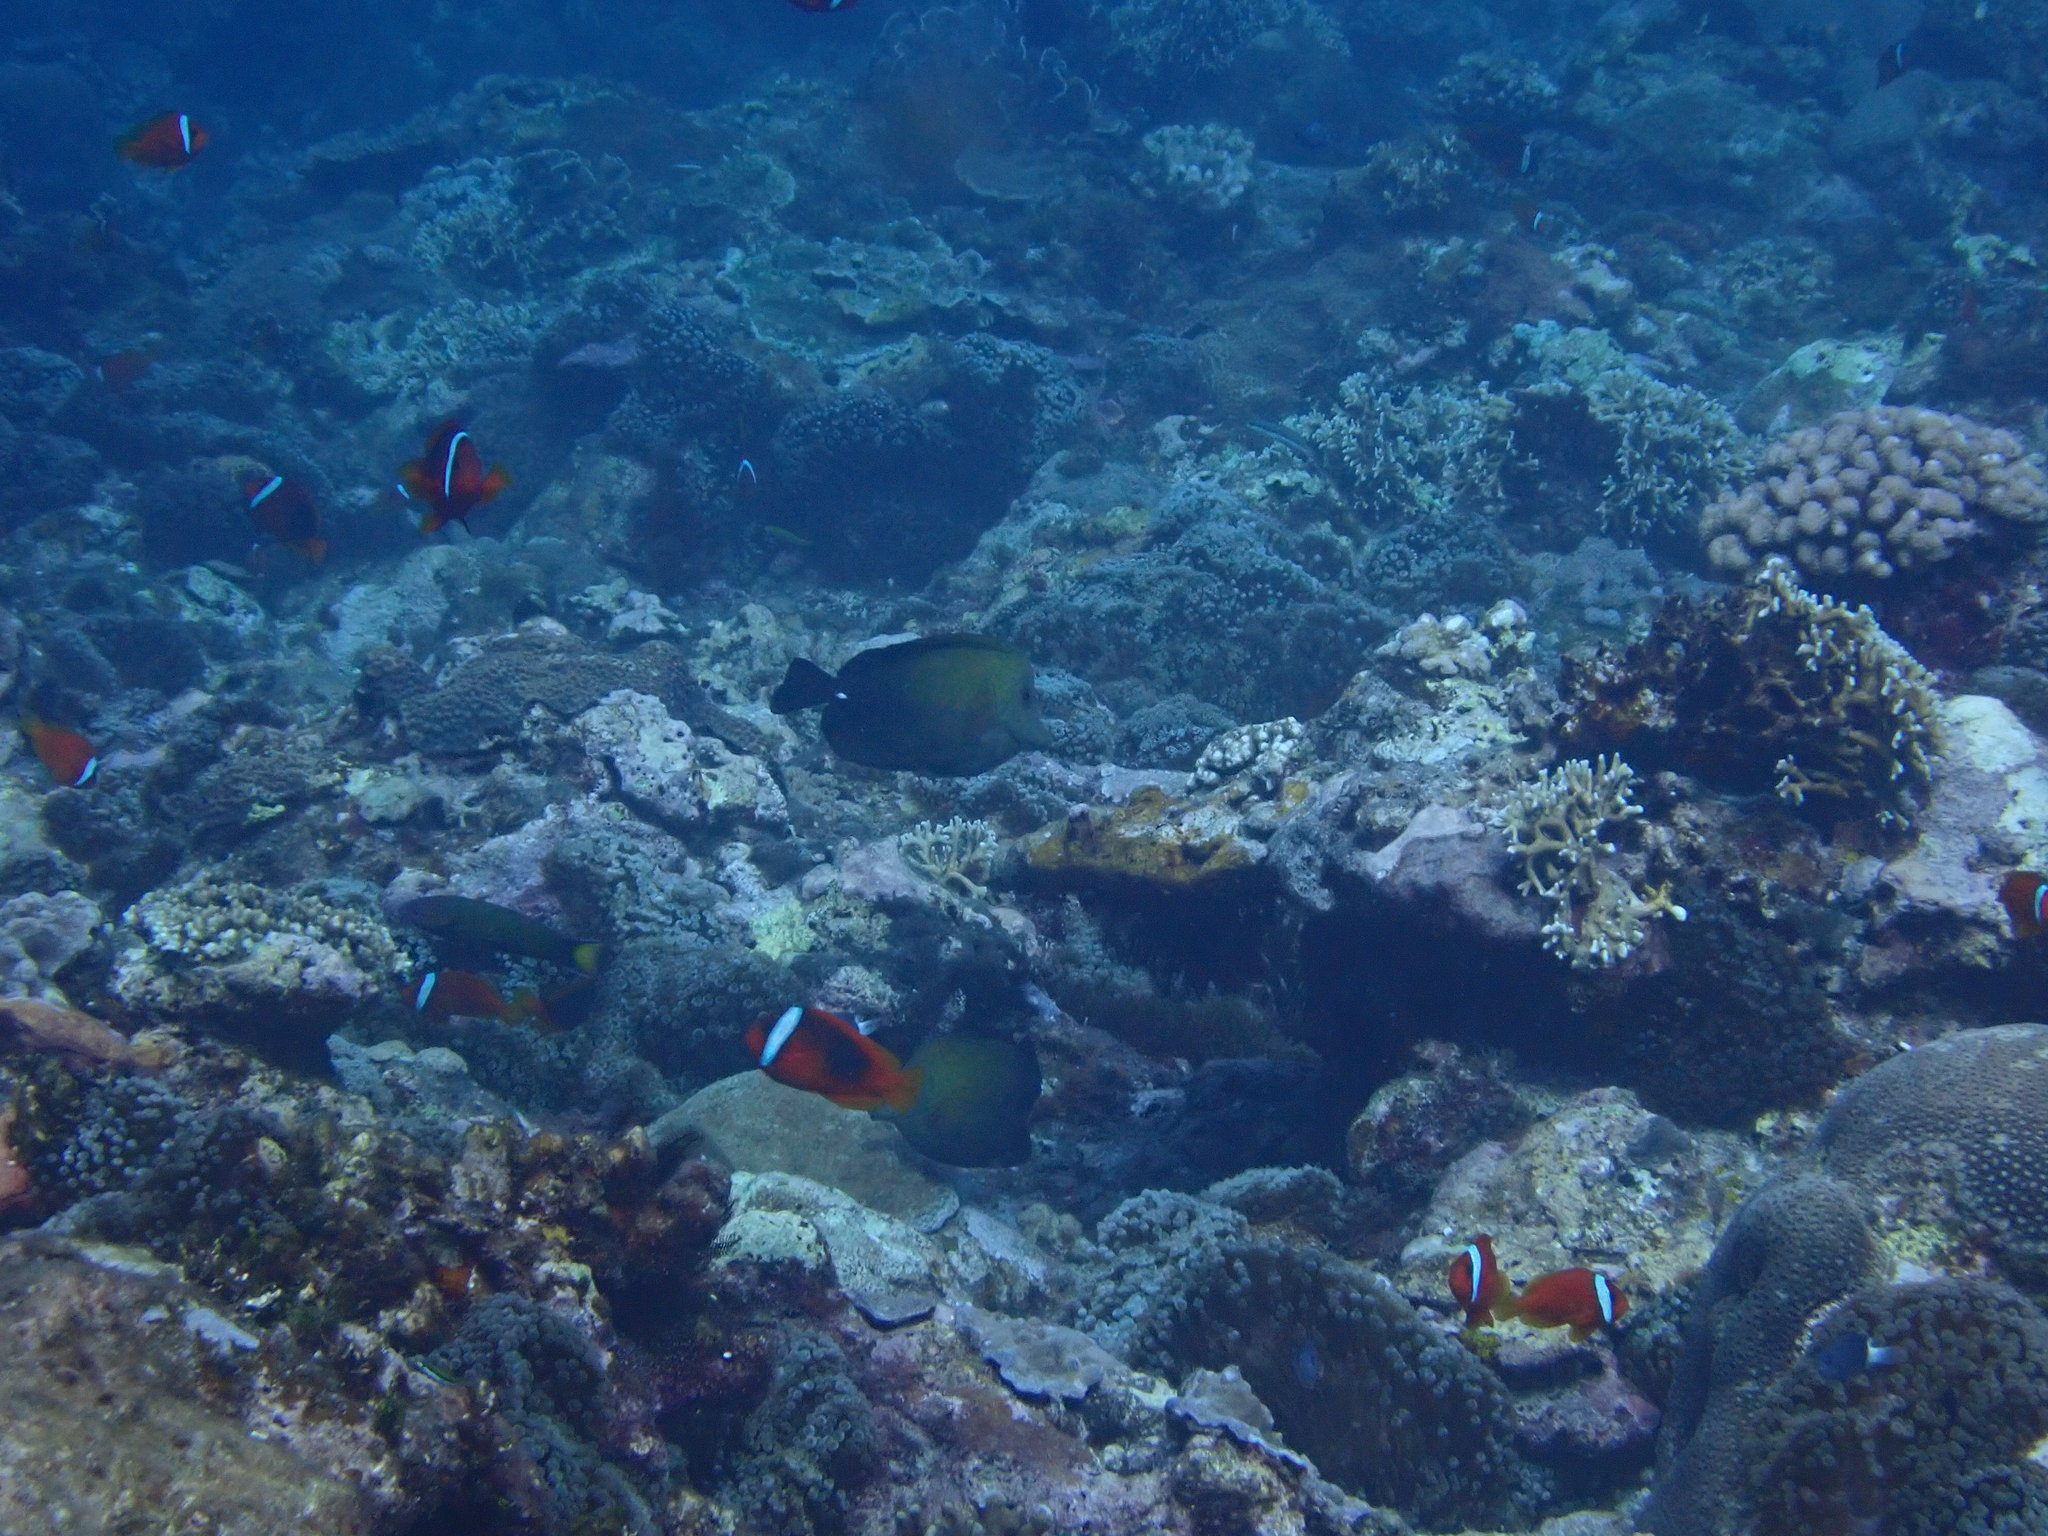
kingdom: Animalia
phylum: Chordata
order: Perciformes
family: Acanthuridae
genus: Zebrasoma
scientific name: Zebrasoma scopas
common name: Twotone tang
